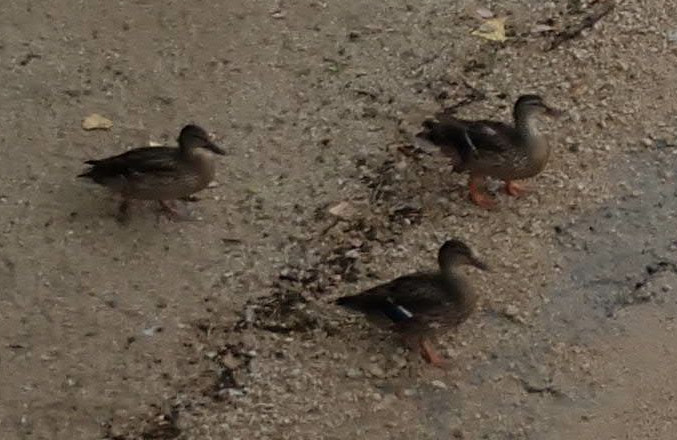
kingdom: Animalia
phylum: Chordata
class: Aves
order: Anseriformes
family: Anatidae
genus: Anas
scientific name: Anas platyrhynchos
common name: Mallard
